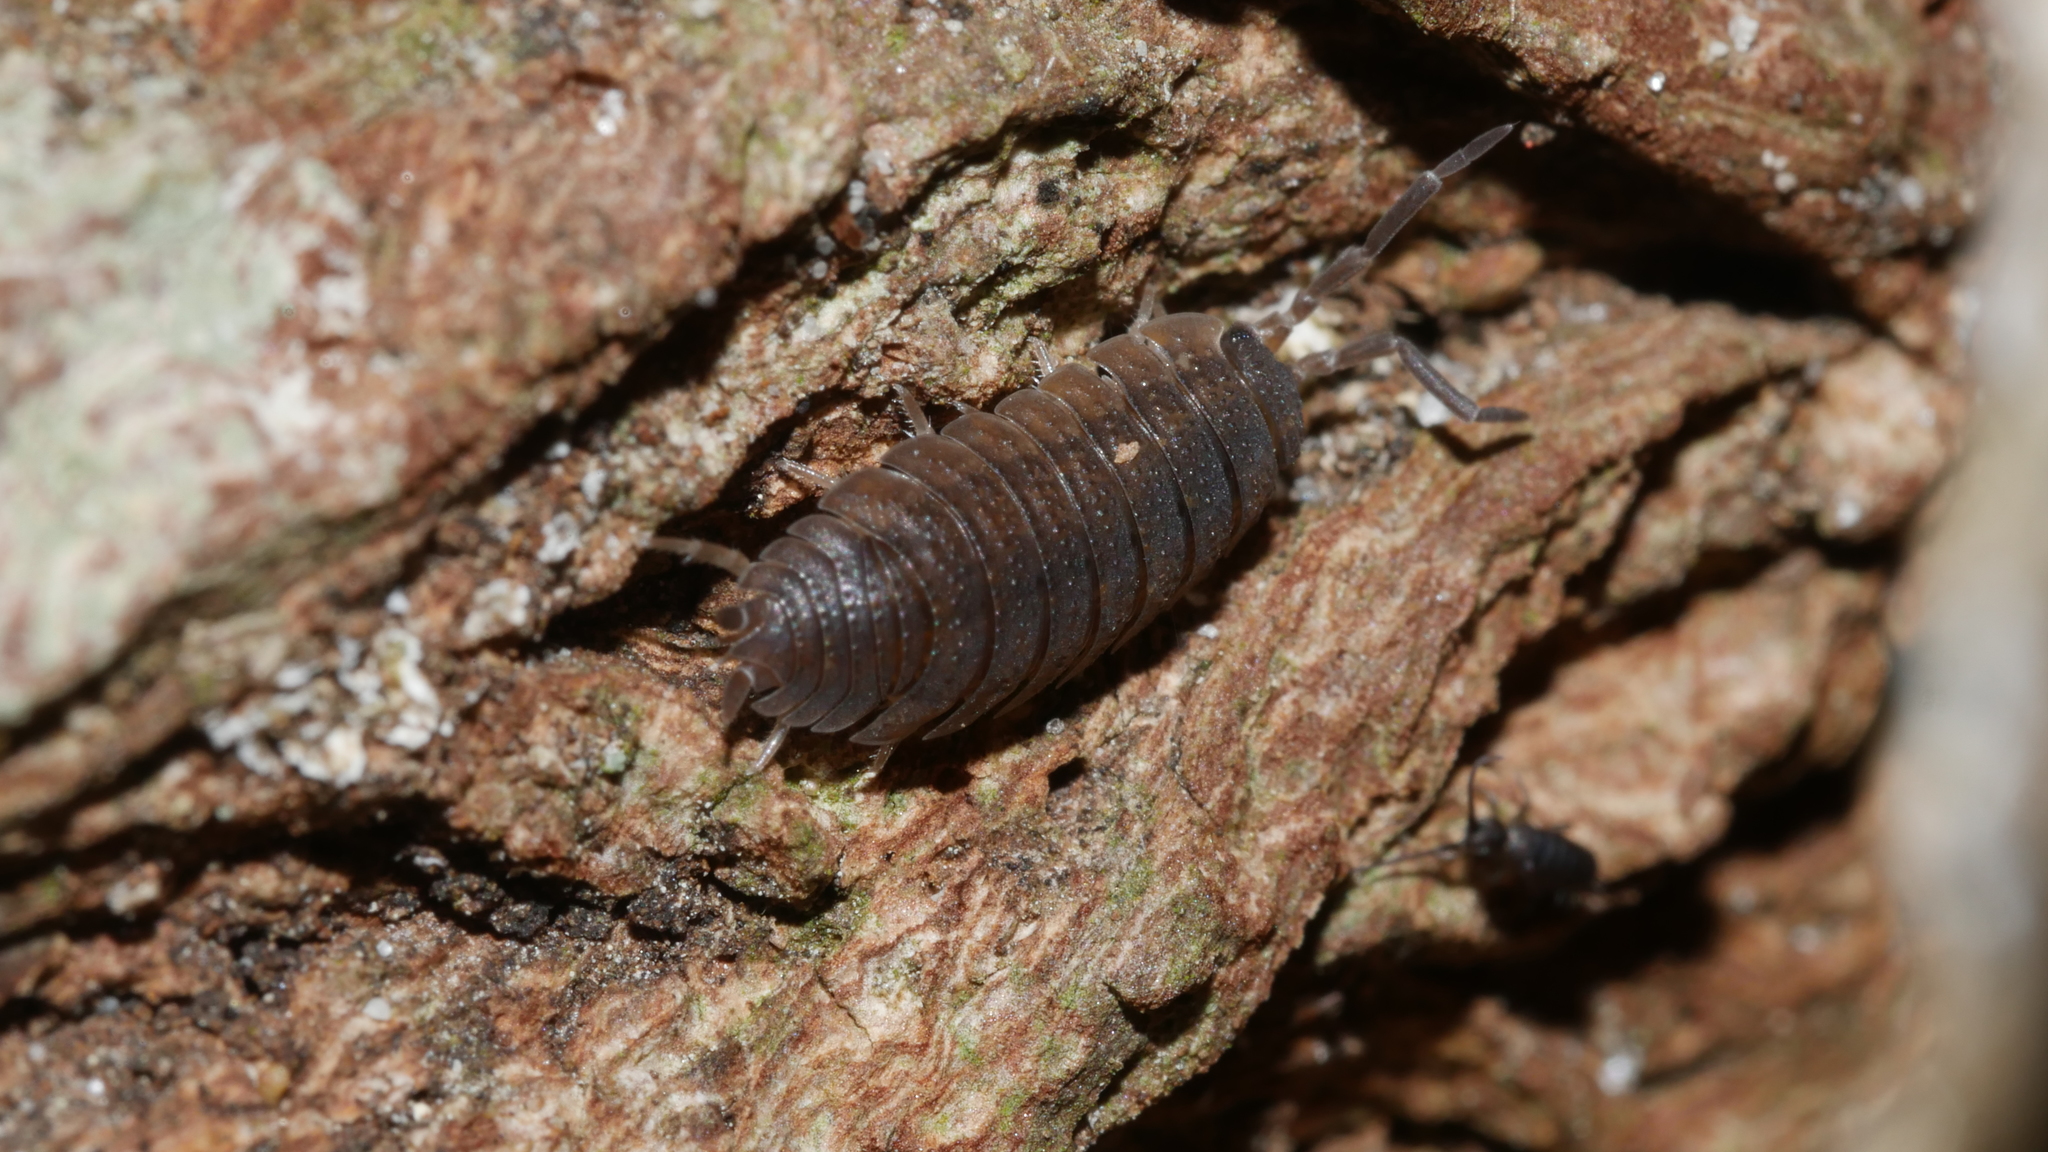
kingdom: Animalia
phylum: Arthropoda
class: Malacostraca
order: Isopoda
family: Porcellionidae
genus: Porcellio
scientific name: Porcellio scaber
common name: Common rough woodlouse
